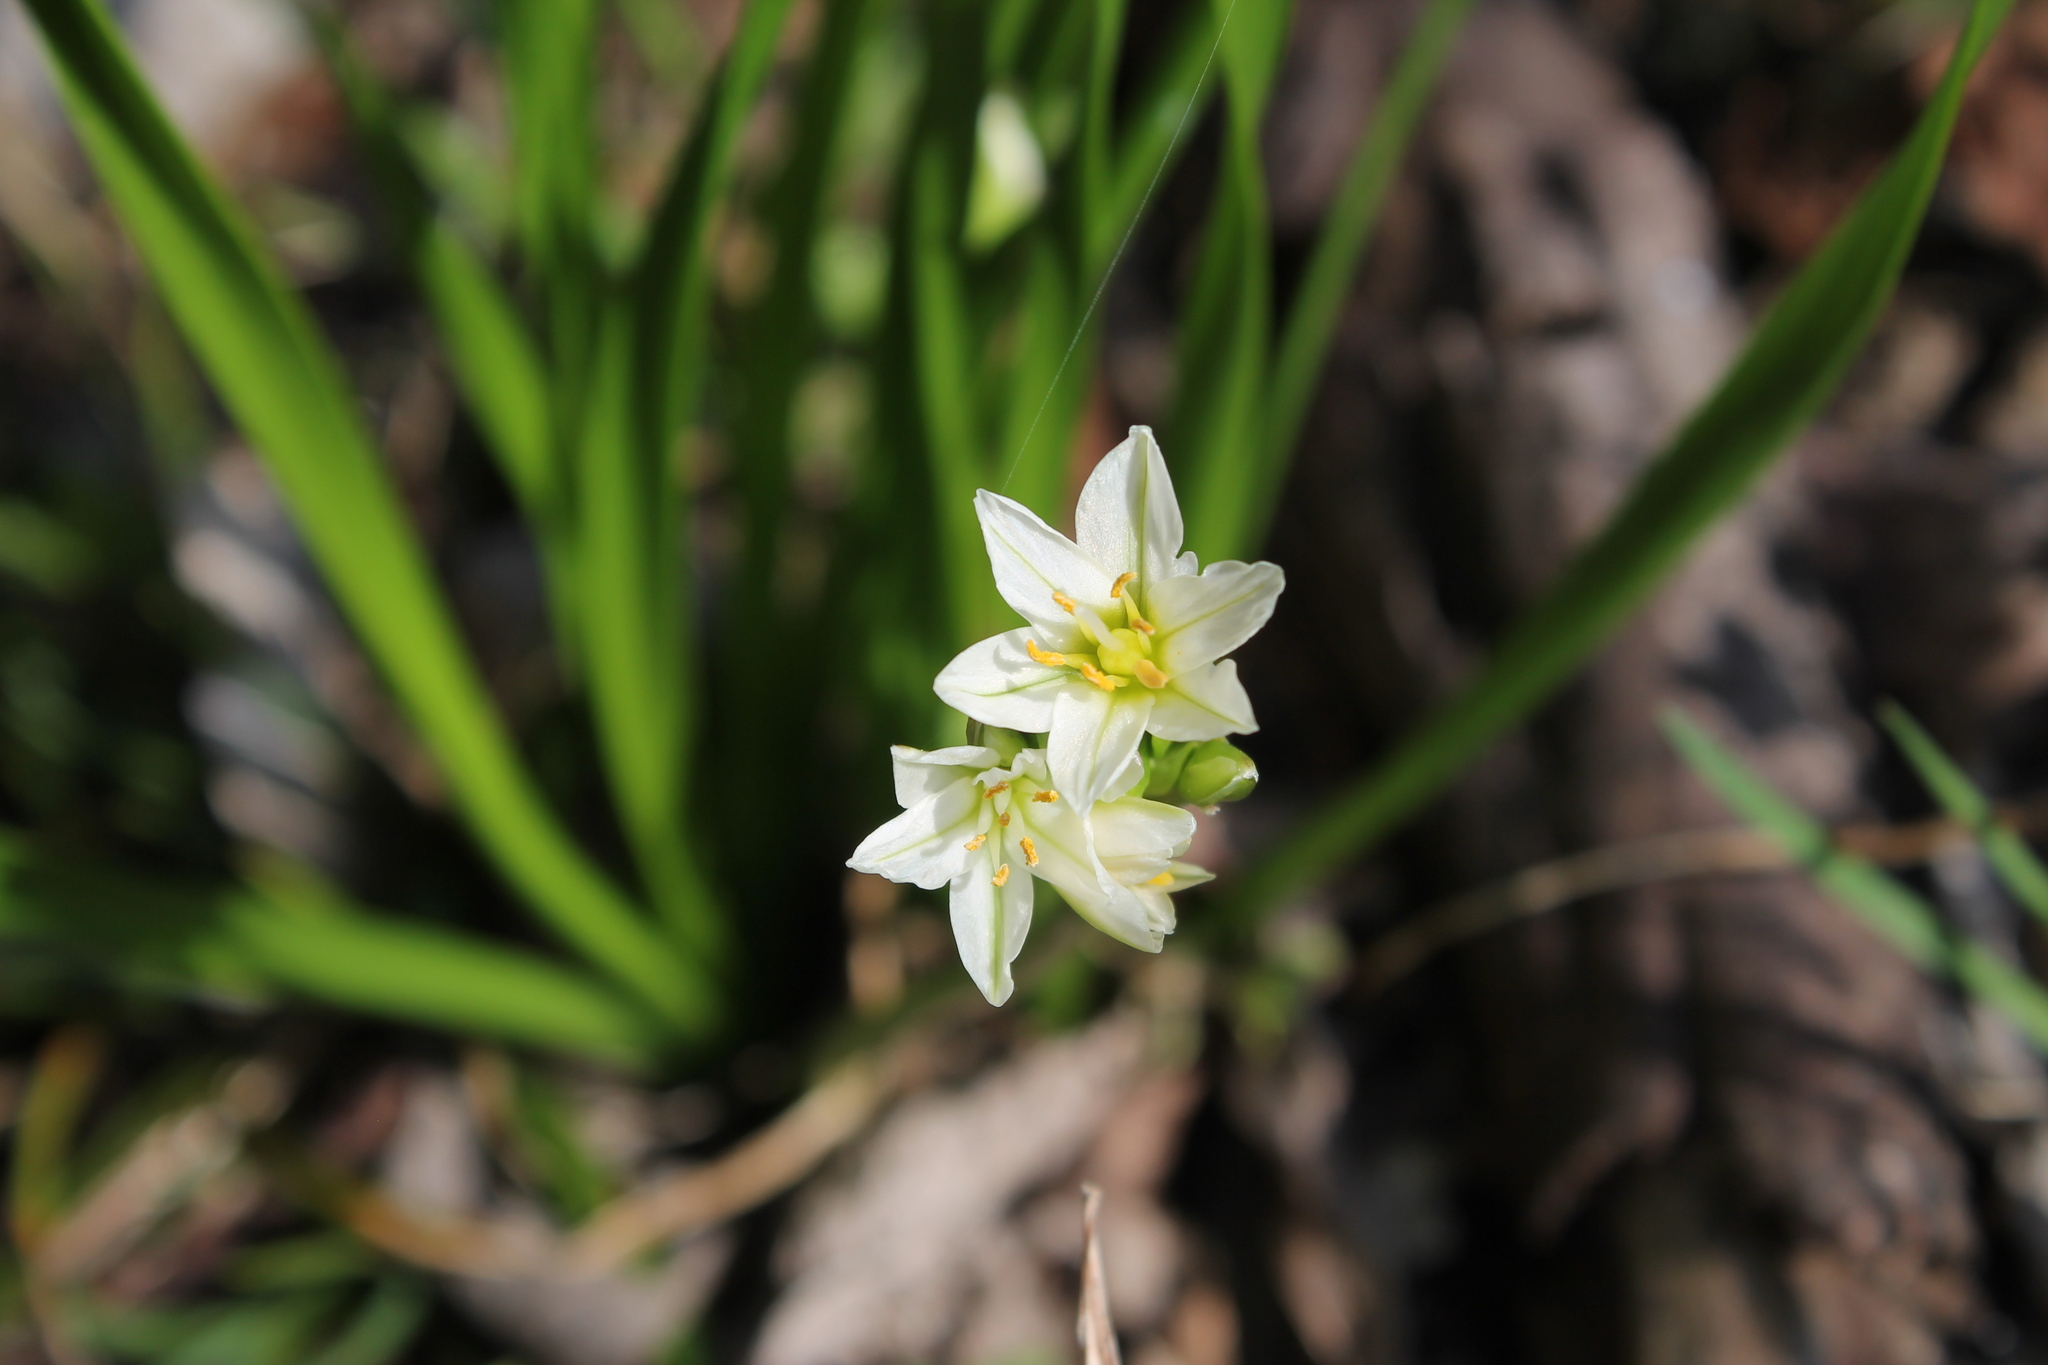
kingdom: Plantae
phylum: Tracheophyta
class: Liliopsida
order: Asparagales
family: Amaryllidaceae
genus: Nothoscordum
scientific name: Nothoscordum bivalve
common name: Crow-poison
